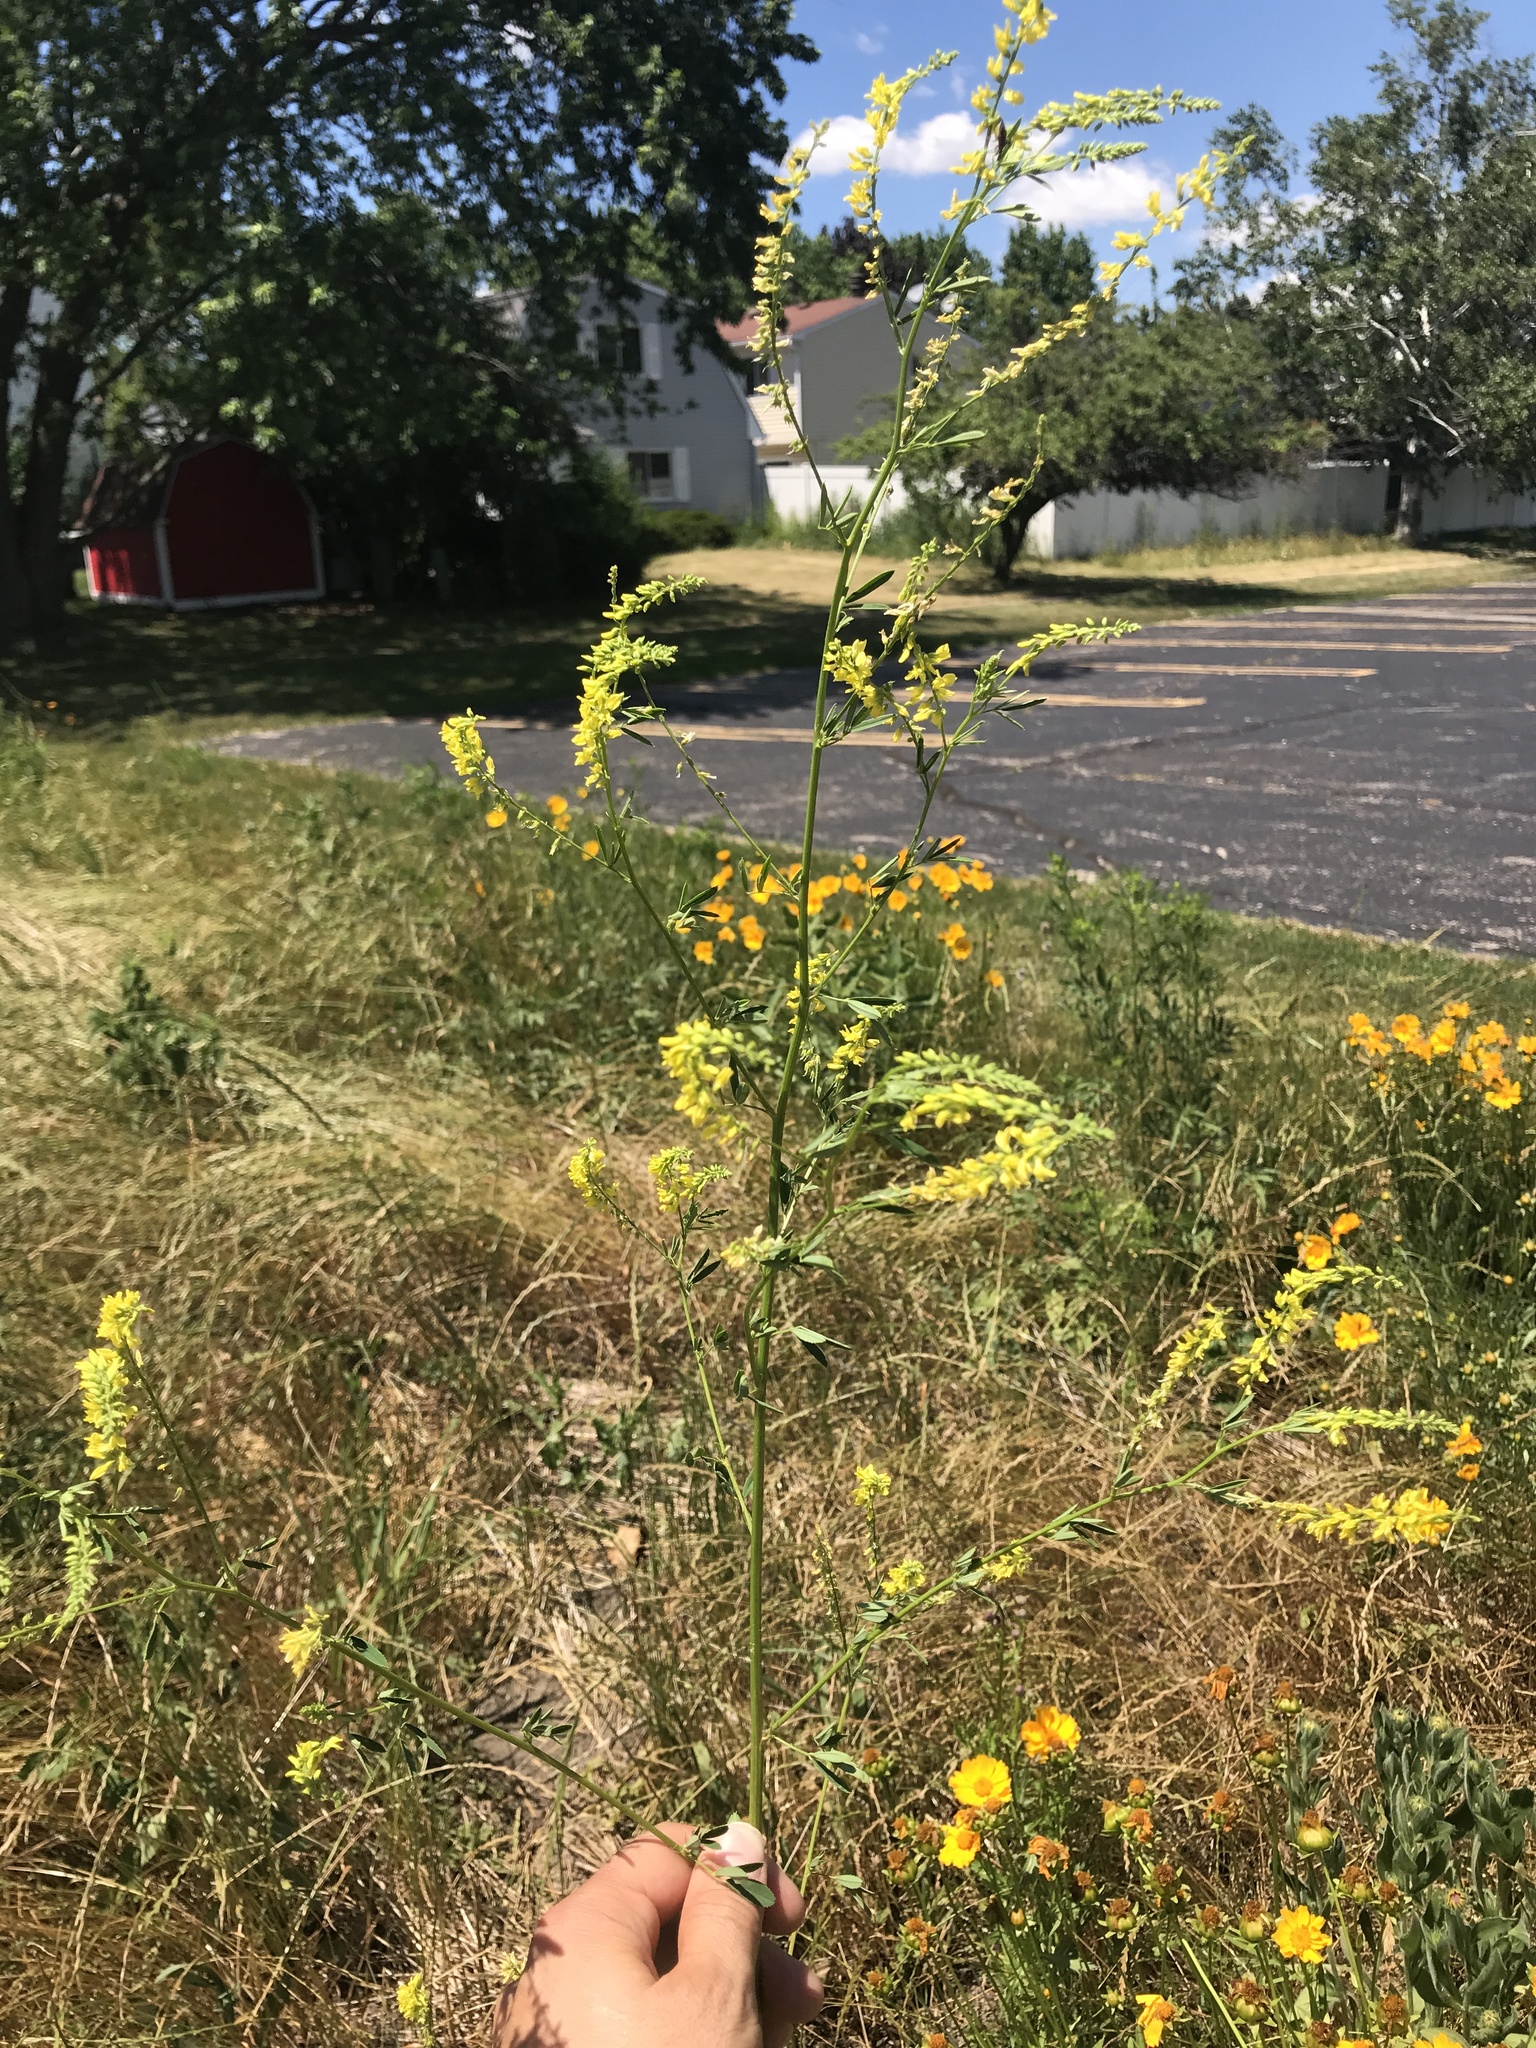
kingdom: Plantae
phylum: Tracheophyta
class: Magnoliopsida
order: Fabales
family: Fabaceae
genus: Melilotus
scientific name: Melilotus officinalis
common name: Sweetclover
